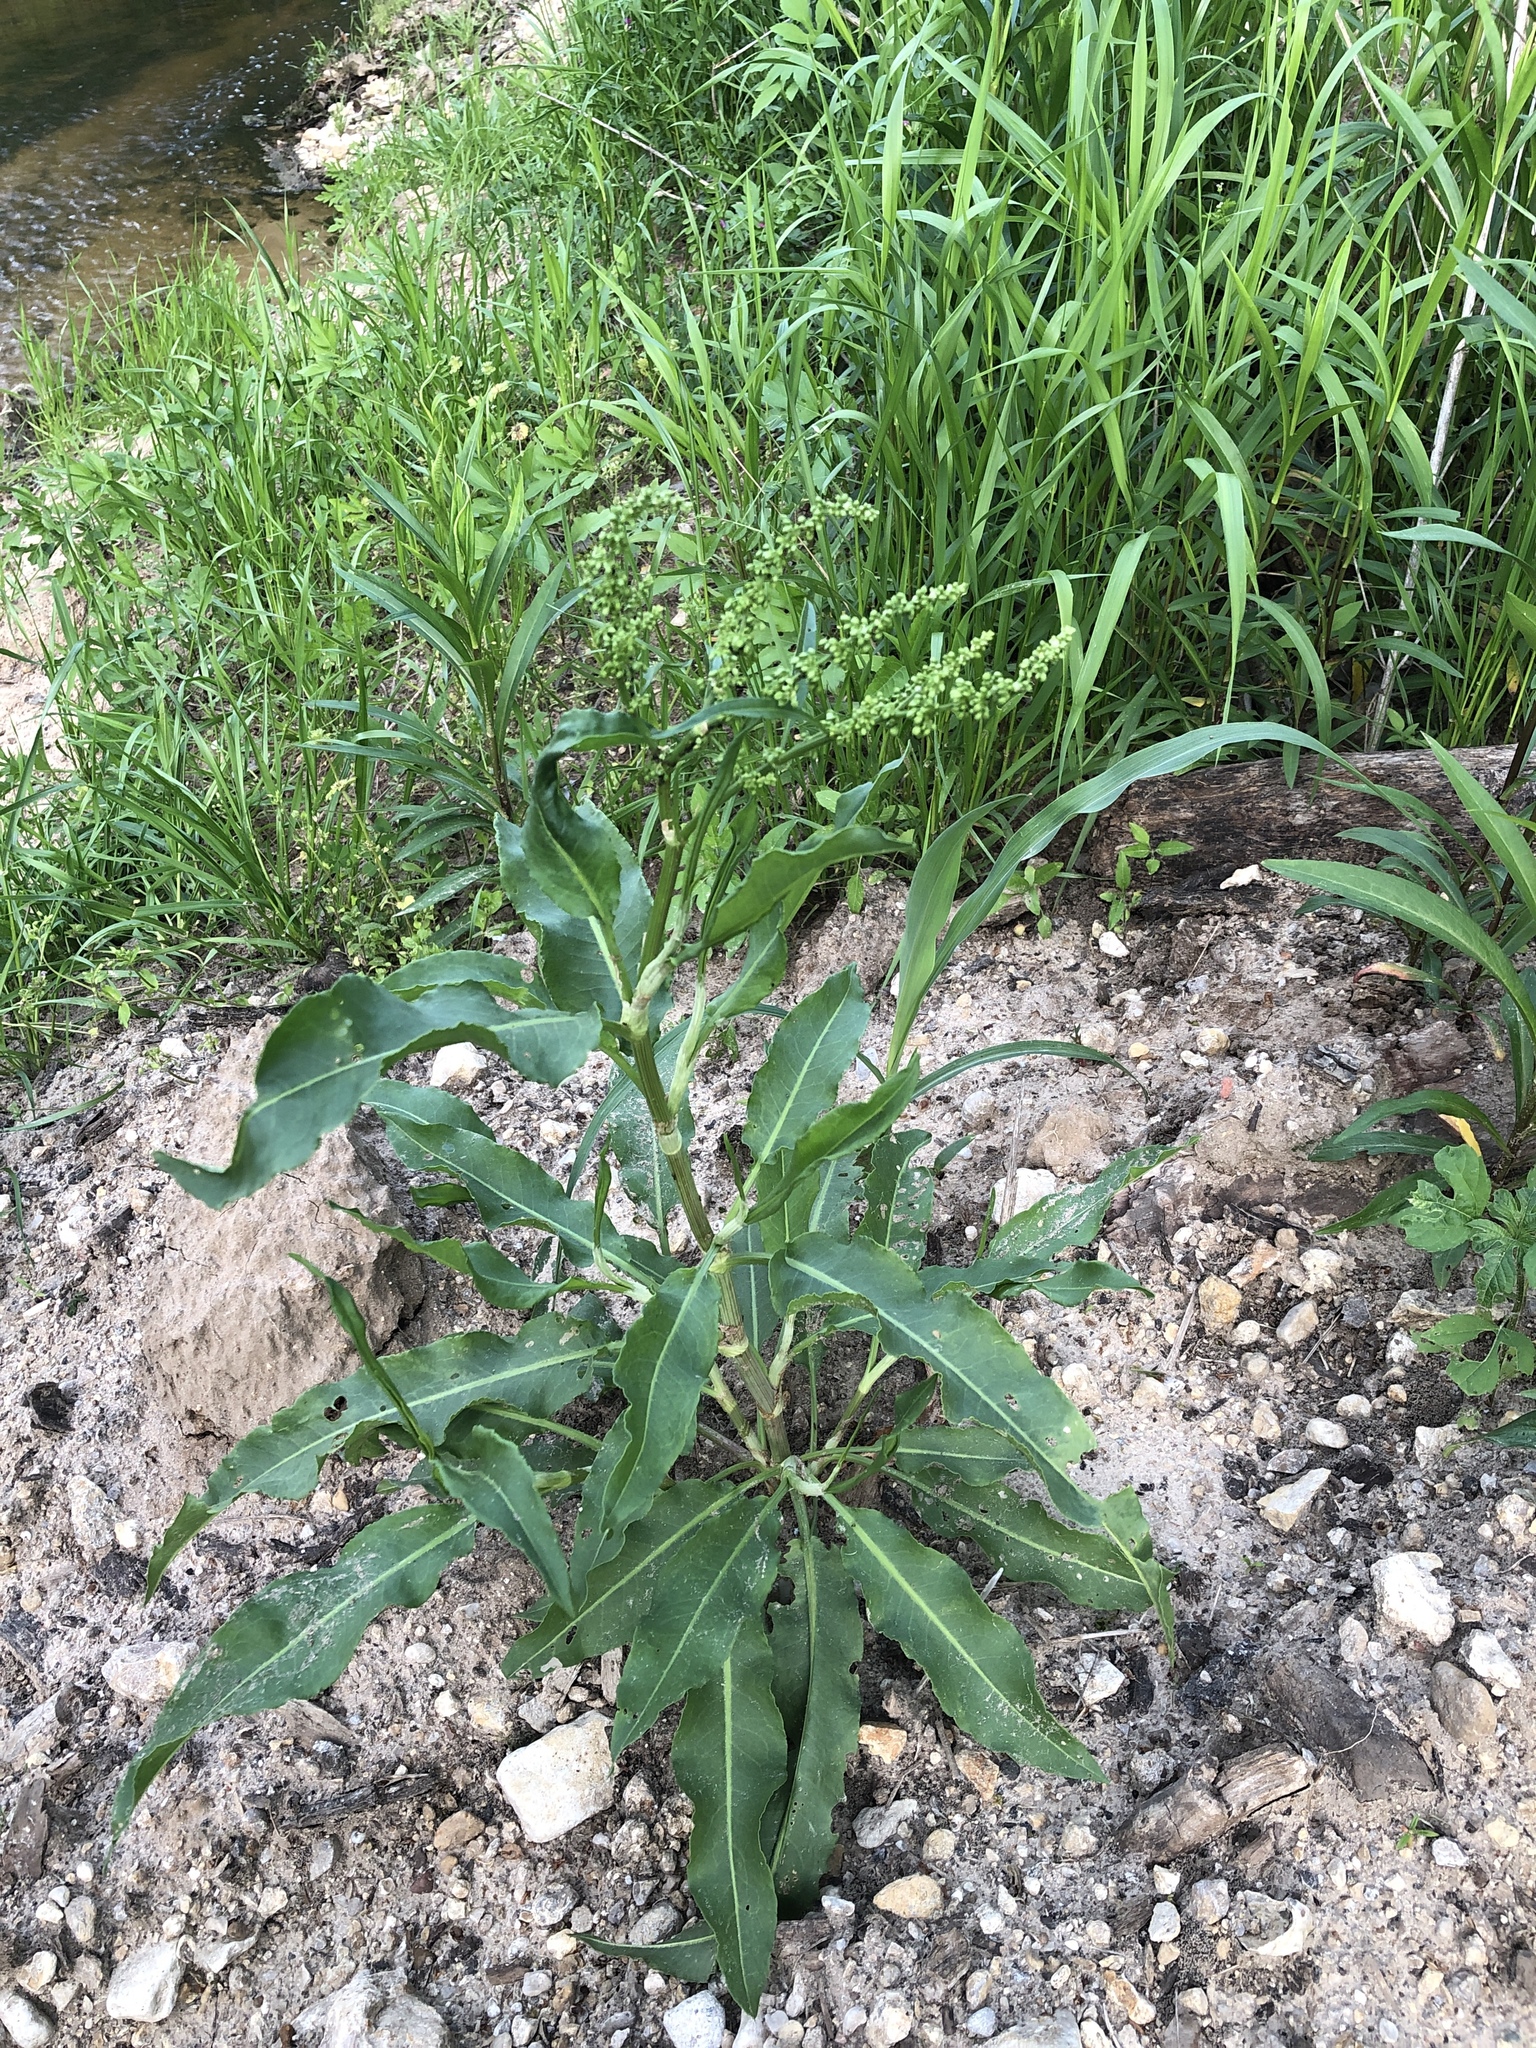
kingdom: Plantae
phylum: Tracheophyta
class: Magnoliopsida
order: Caryophyllales
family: Polygonaceae
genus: Rumex
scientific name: Rumex crispus
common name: Curled dock
